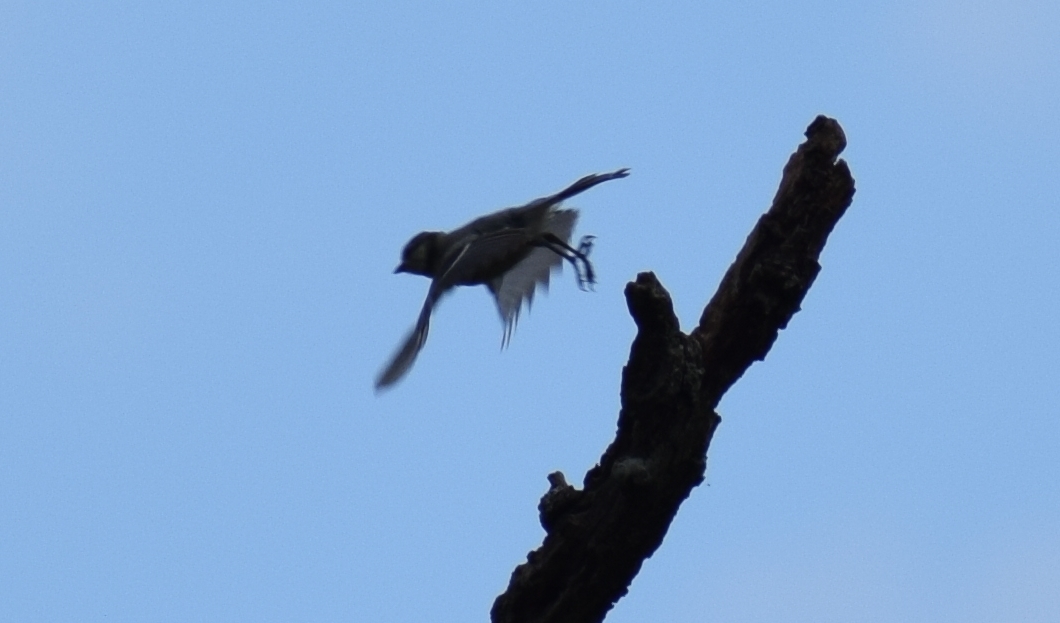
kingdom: Animalia
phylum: Chordata
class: Aves
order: Passeriformes
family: Paridae
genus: Cyanistes
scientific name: Cyanistes caeruleus
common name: Eurasian blue tit
